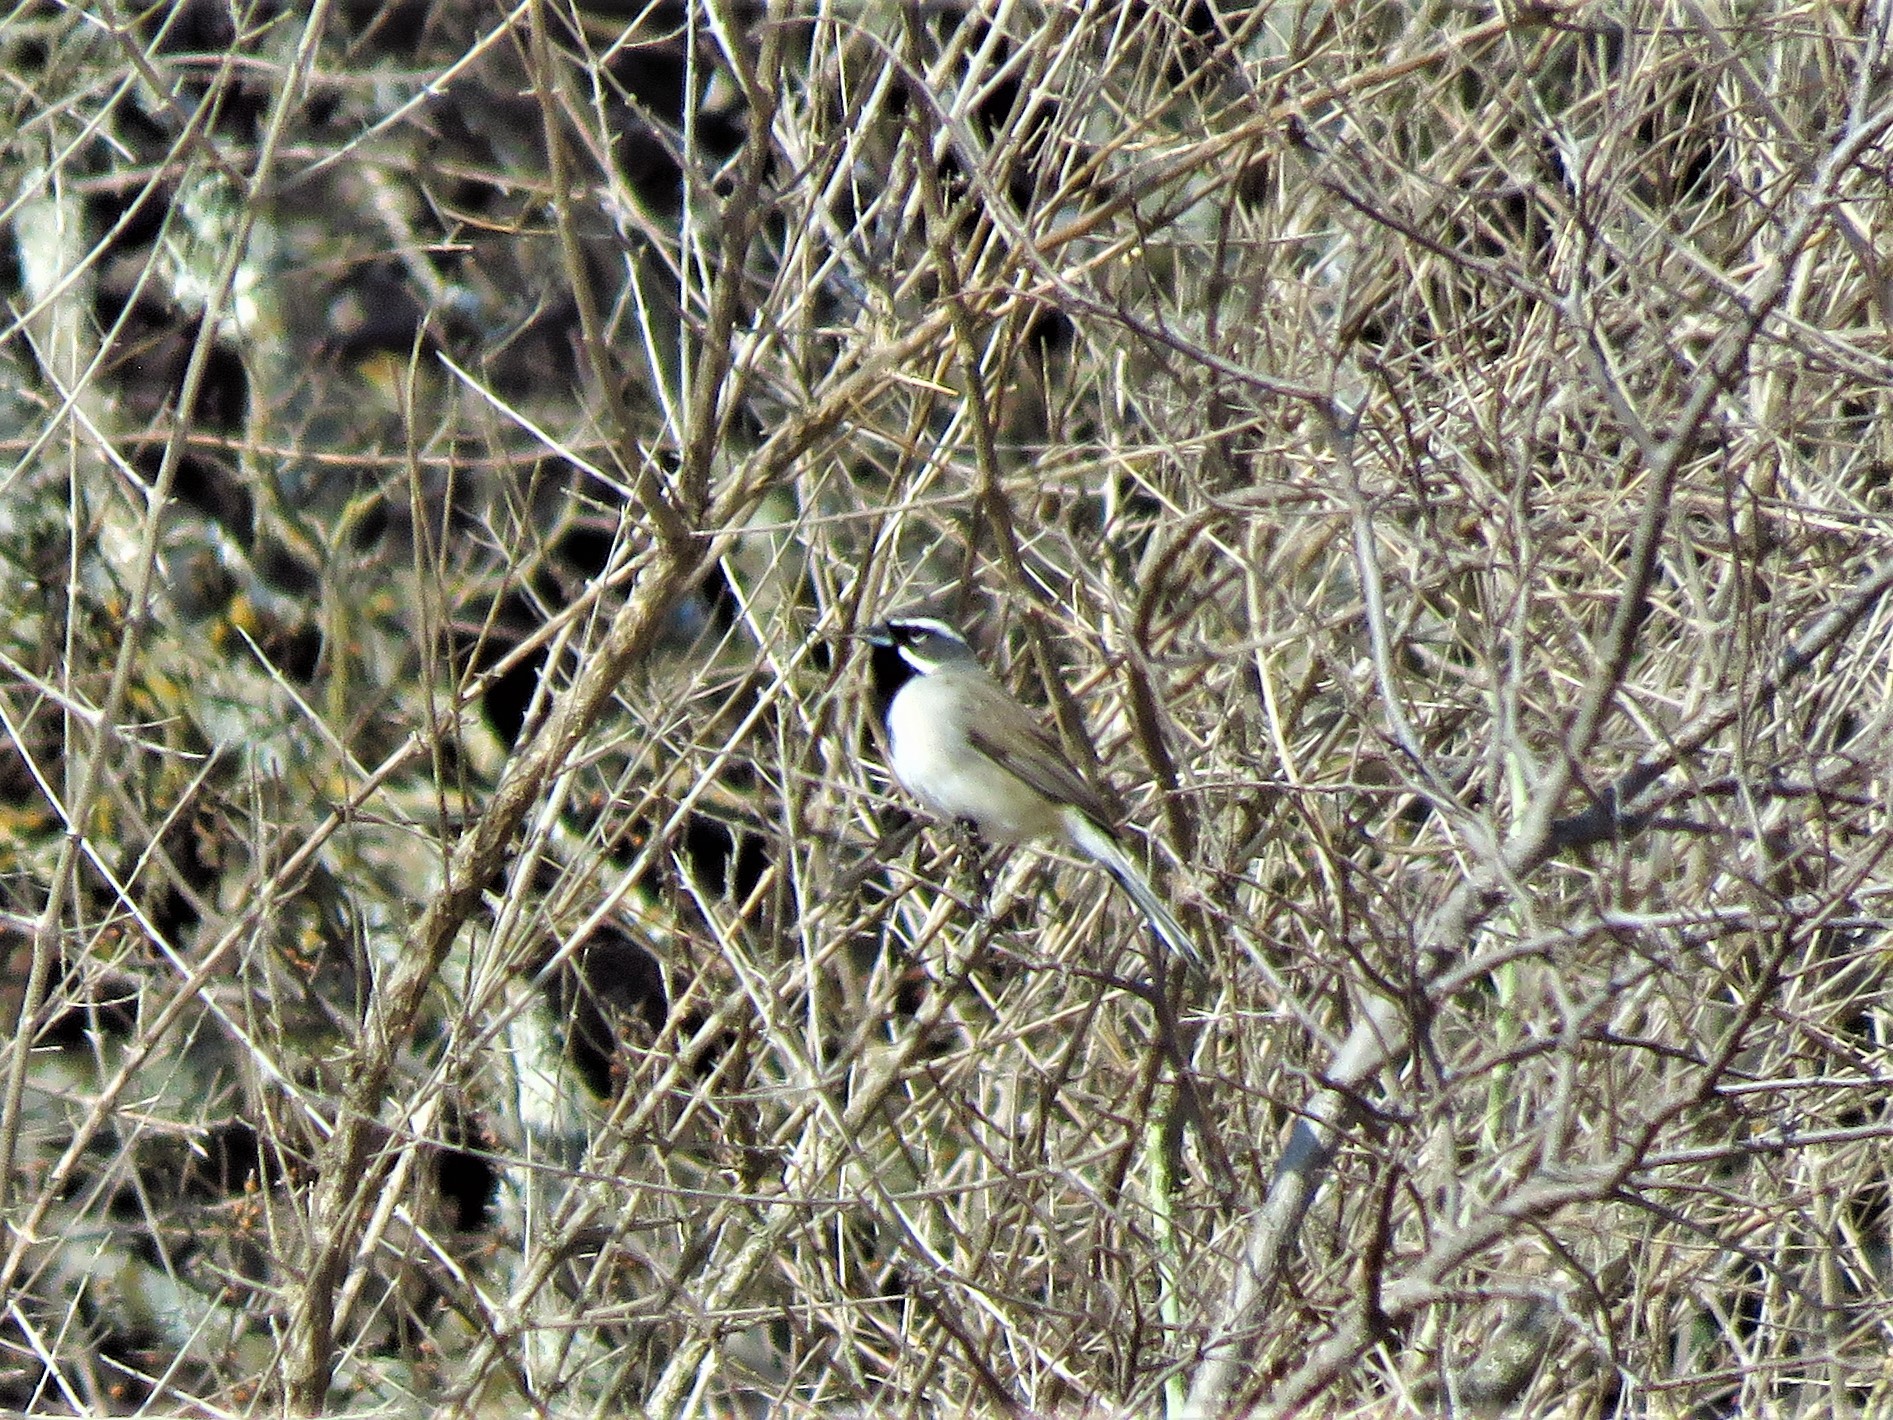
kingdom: Animalia
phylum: Chordata
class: Aves
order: Passeriformes
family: Passerellidae
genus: Amphispiza
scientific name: Amphispiza bilineata
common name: Black-throated sparrow
